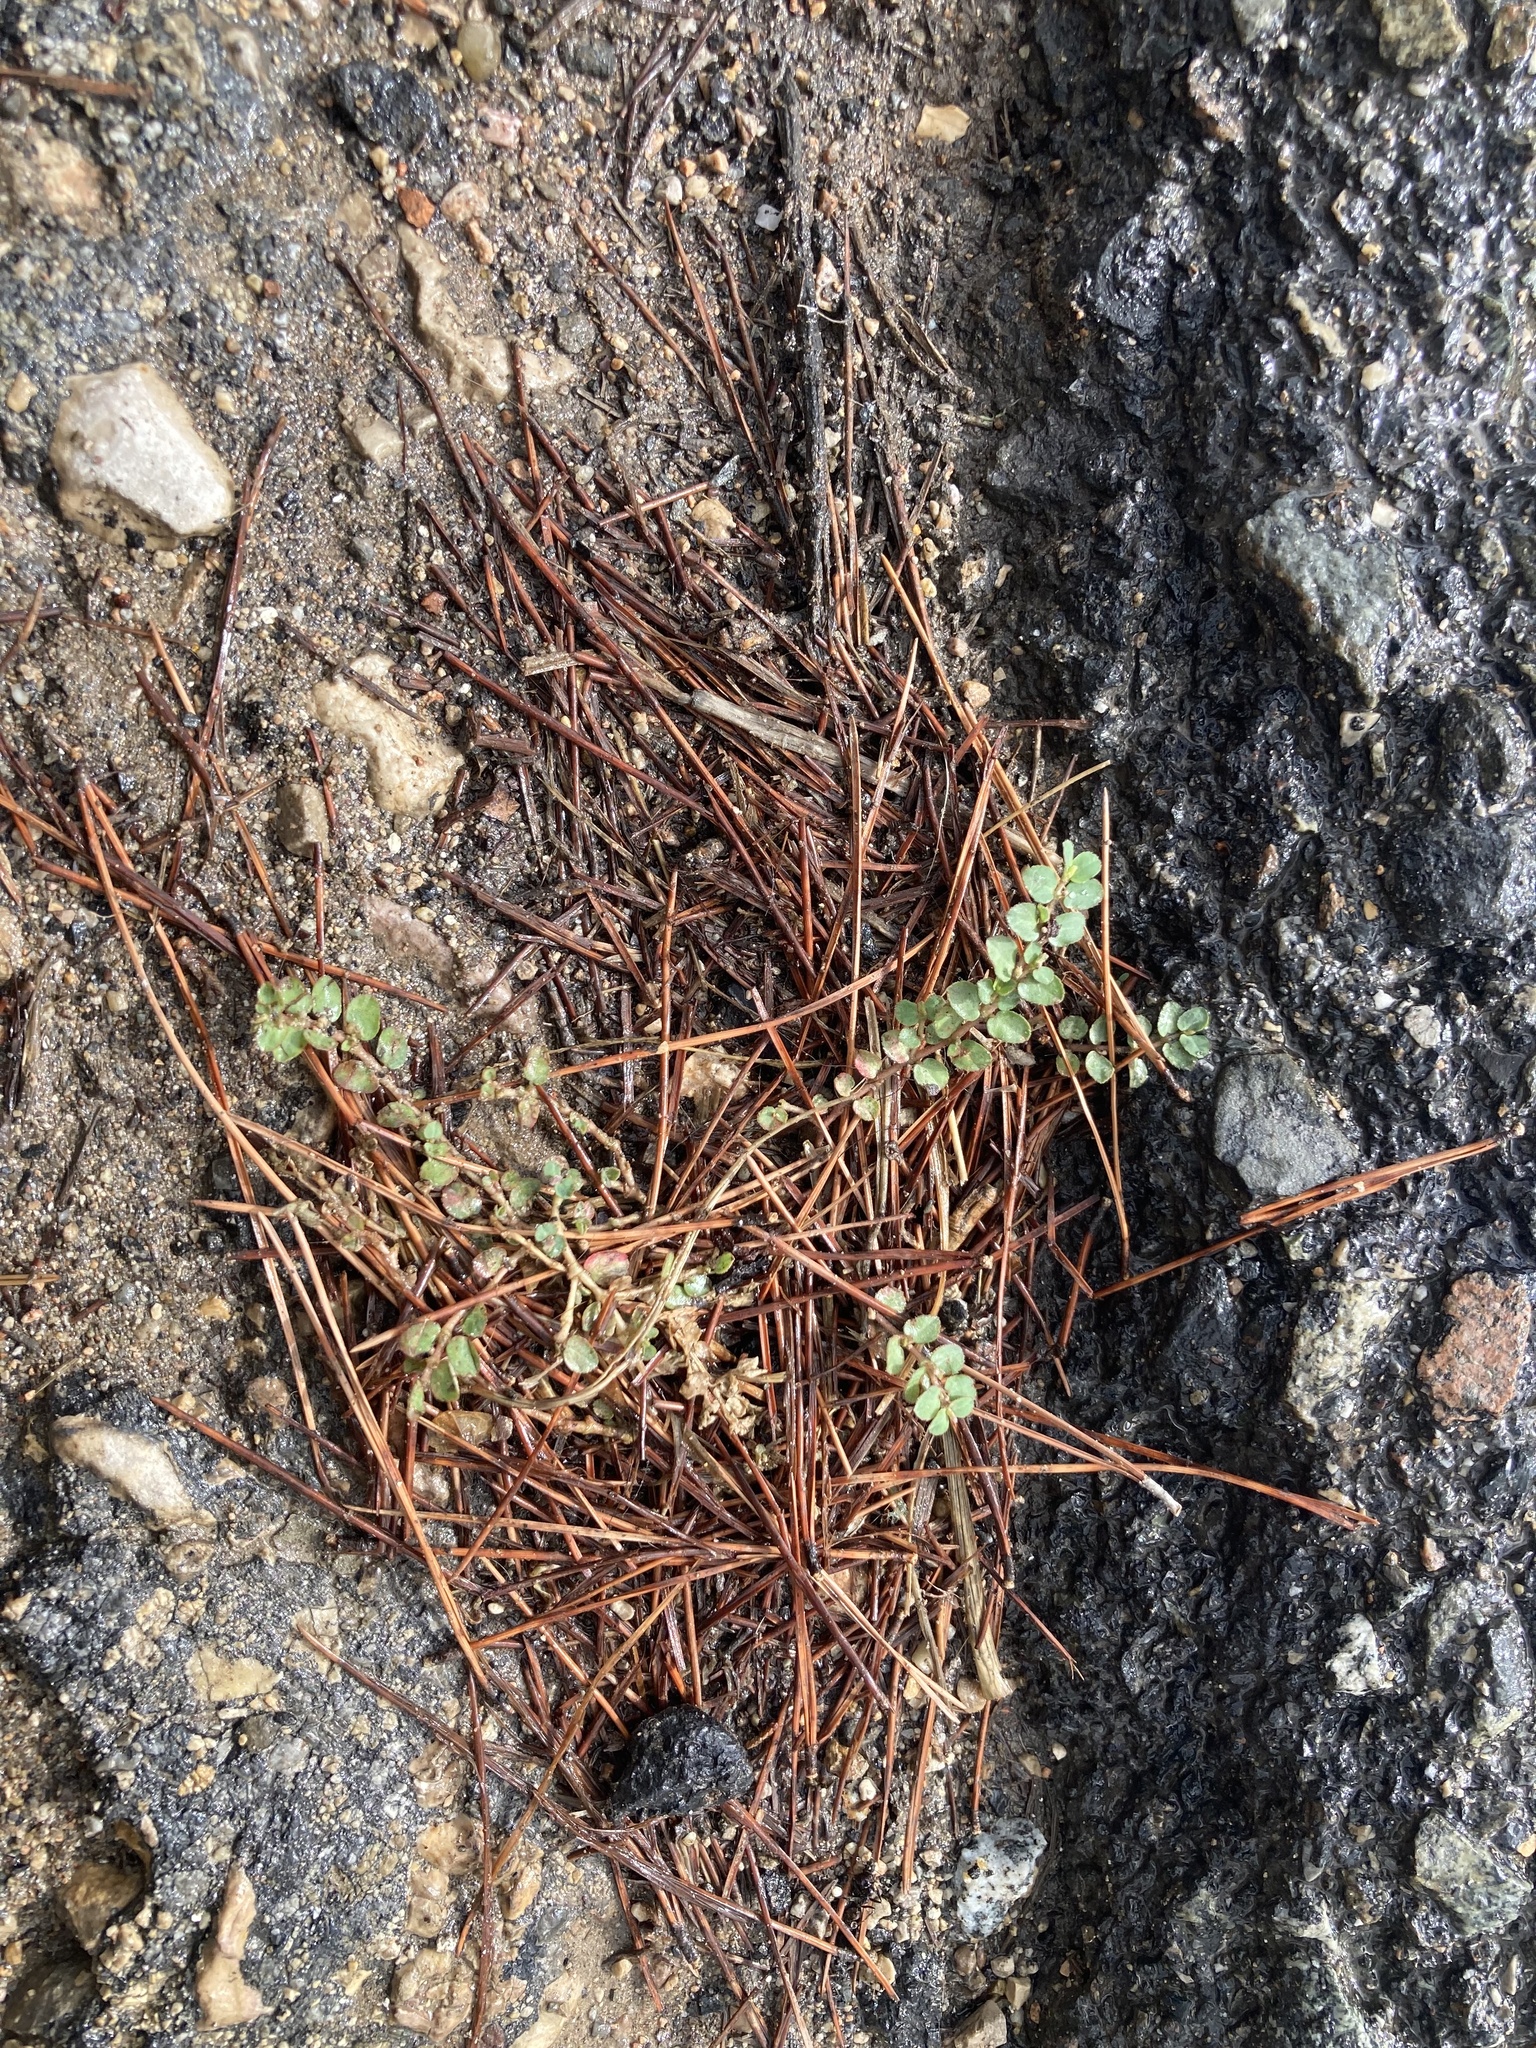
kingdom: Plantae
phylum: Tracheophyta
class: Magnoliopsida
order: Malpighiales
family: Euphorbiaceae
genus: Euphorbia
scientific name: Euphorbia maculata
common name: Spotted spurge
